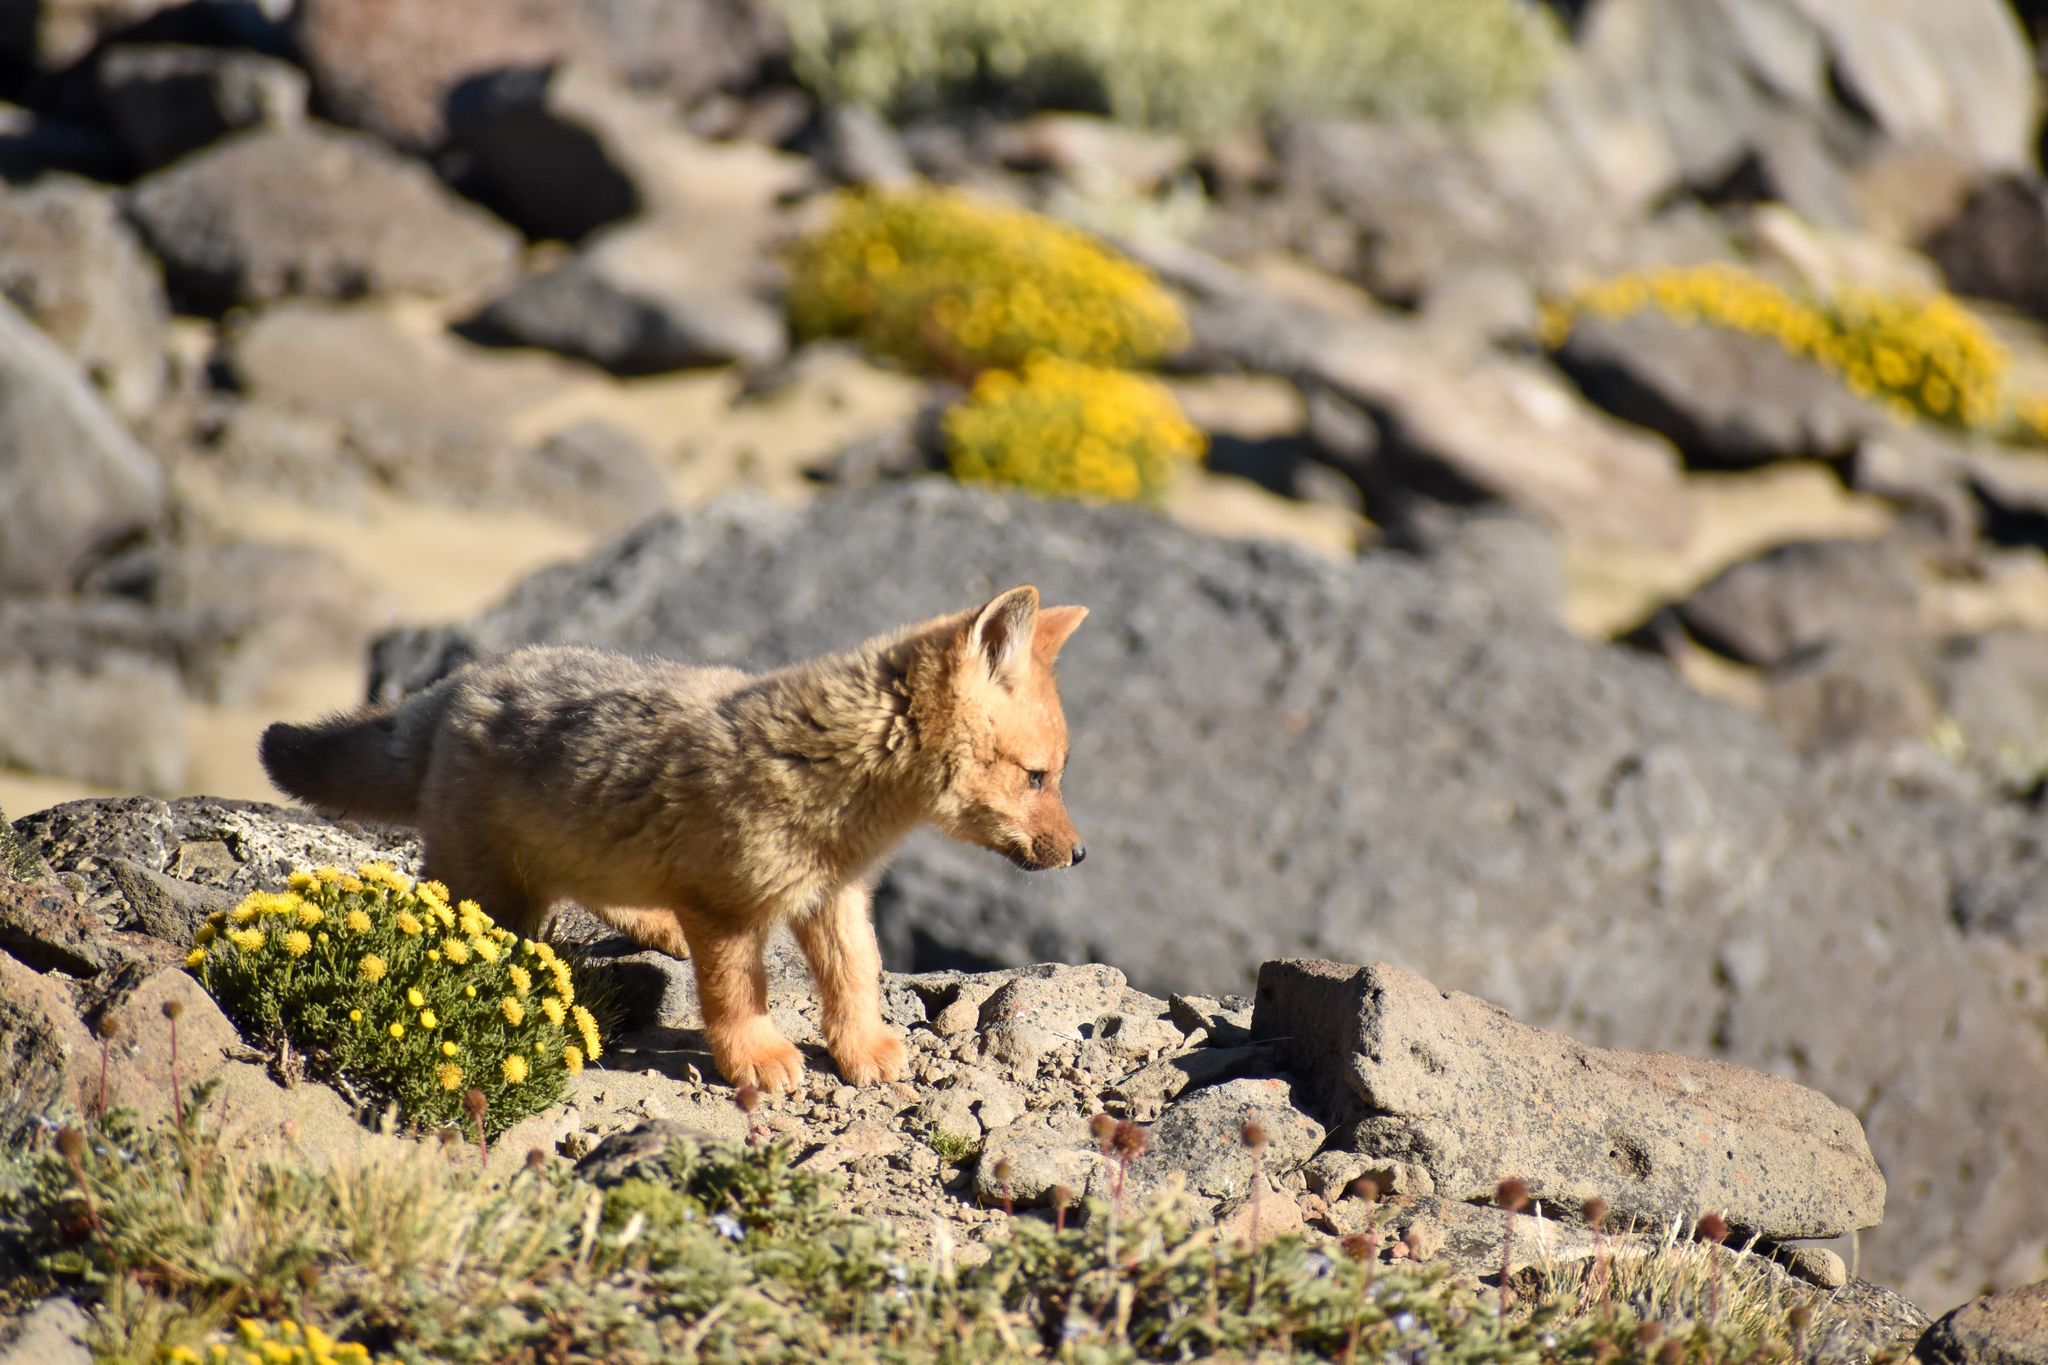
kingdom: Animalia
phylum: Chordata
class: Mammalia
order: Carnivora
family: Canidae
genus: Lycalopex
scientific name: Lycalopex culpaeus
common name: Culpeo
